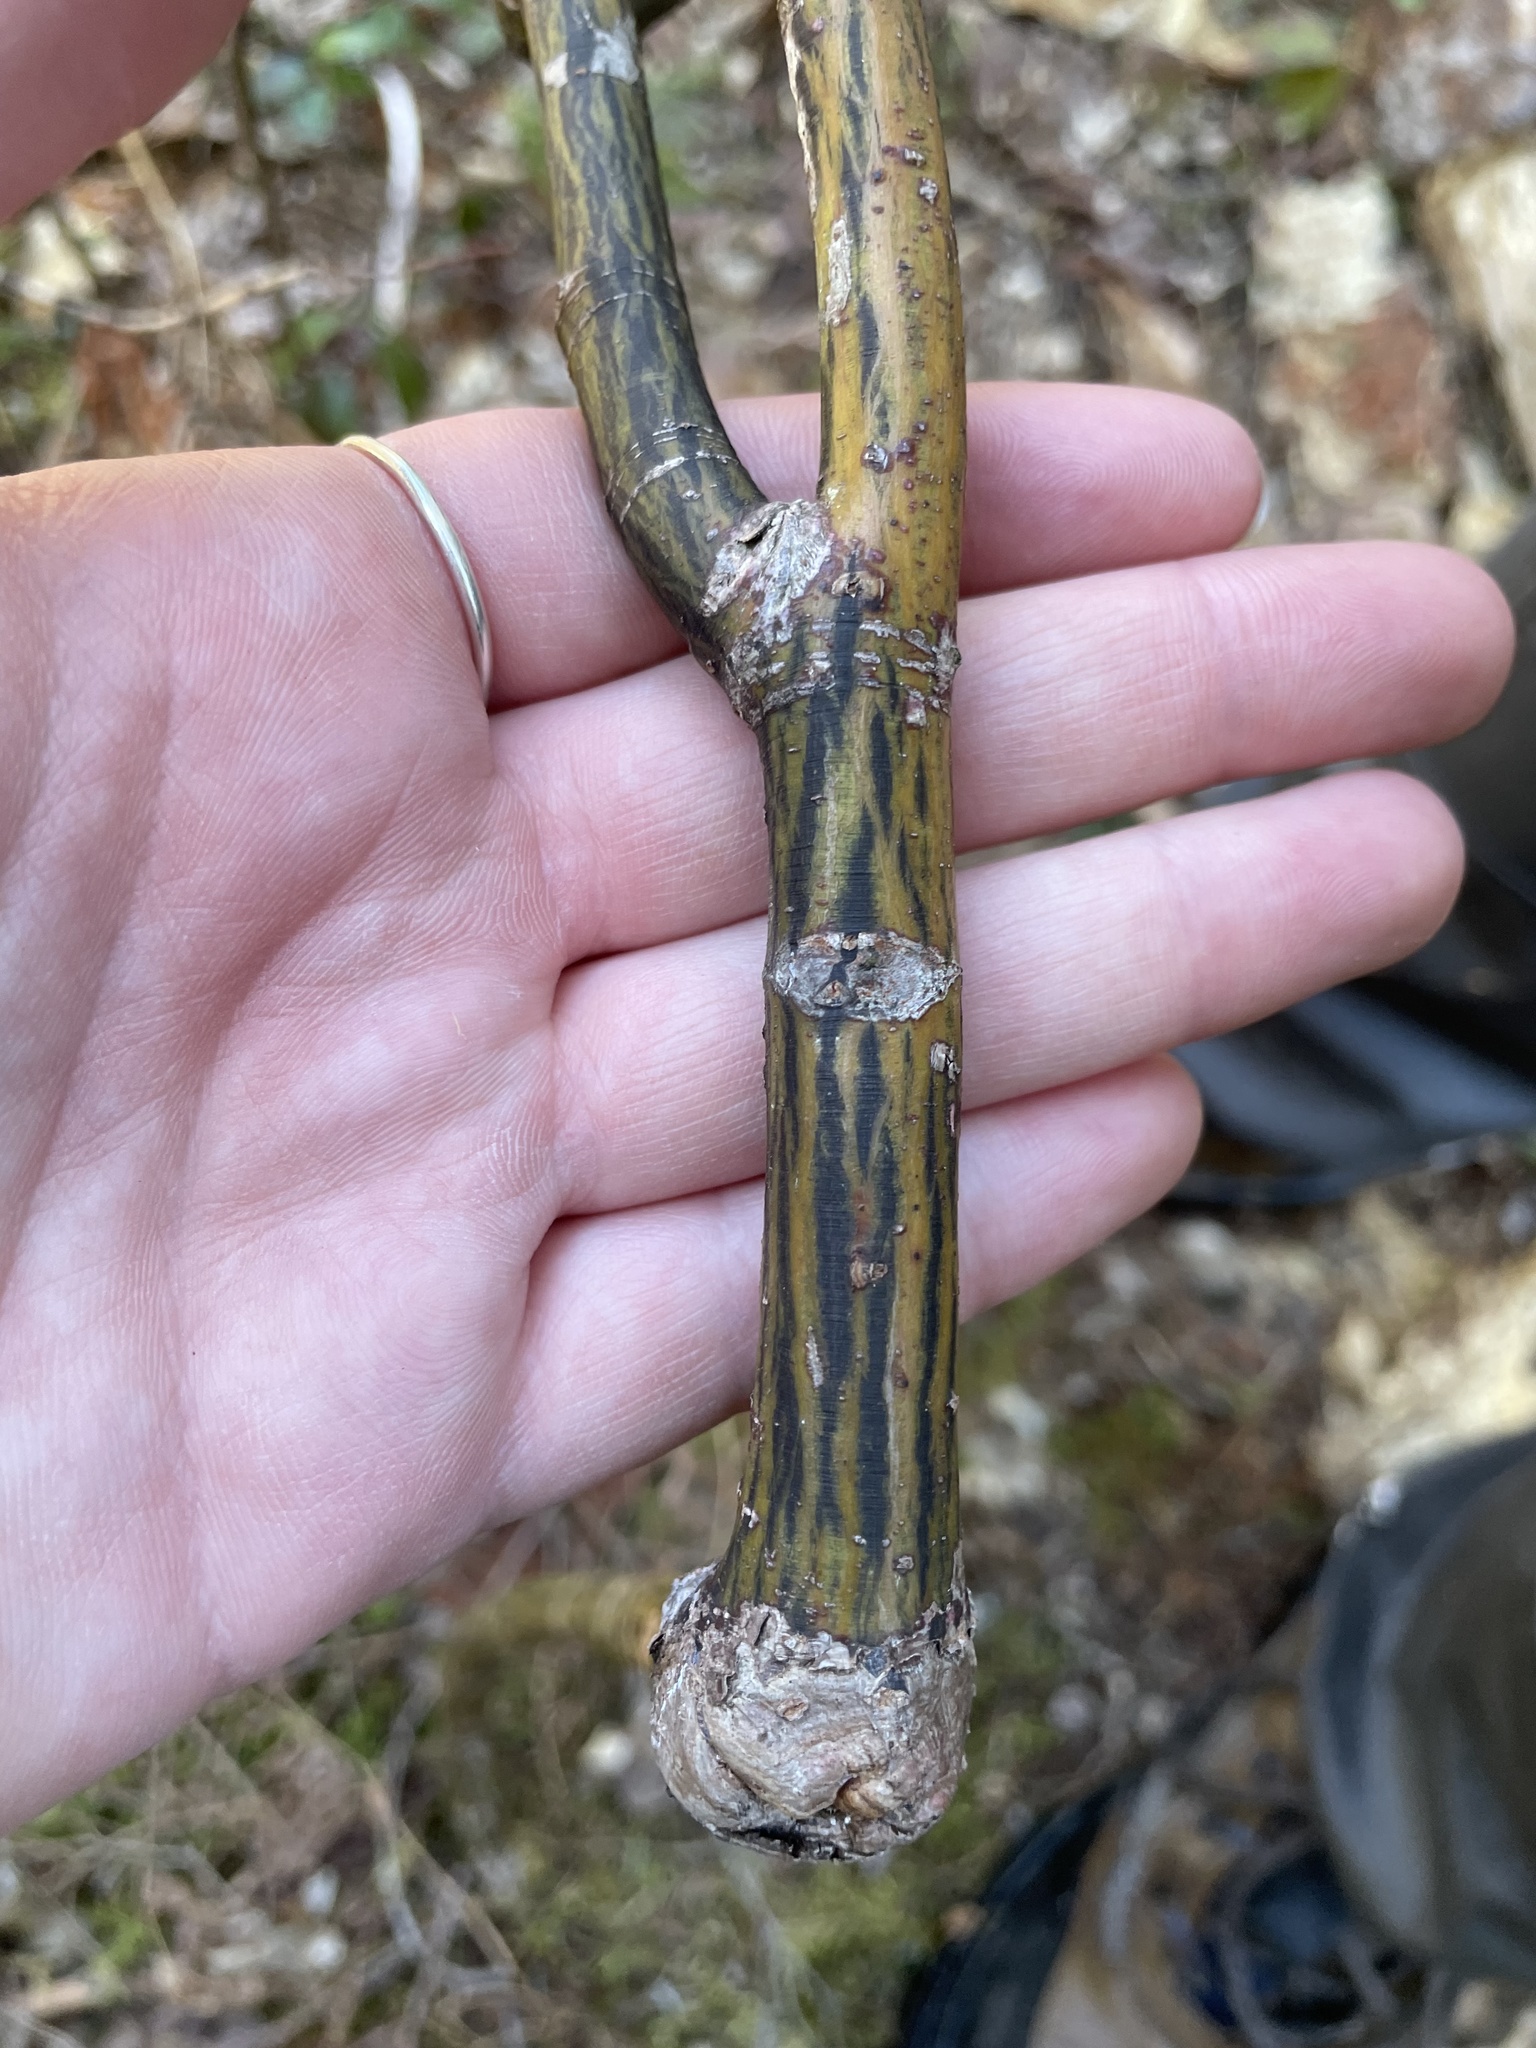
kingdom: Plantae
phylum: Tracheophyta
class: Magnoliopsida
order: Sapindales
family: Sapindaceae
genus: Acer
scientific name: Acer pensylvanicum
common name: Moosewood
